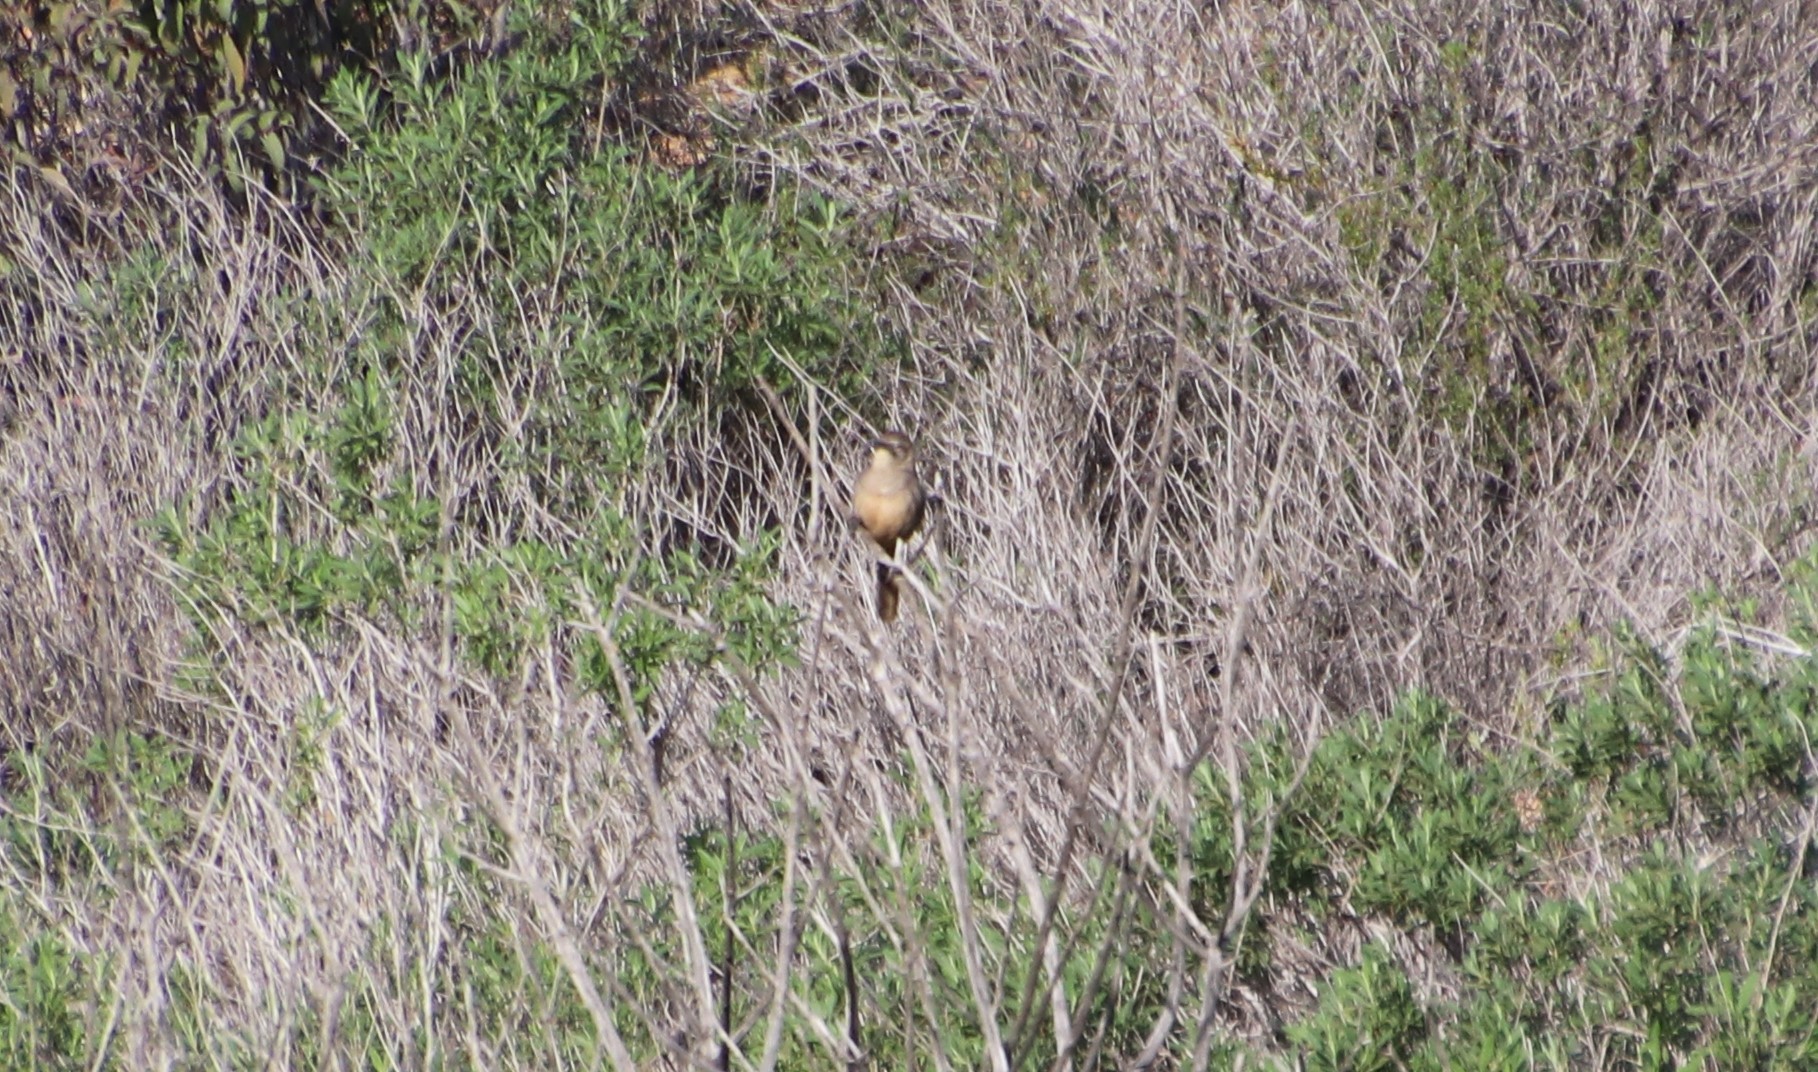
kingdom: Animalia
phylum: Chordata
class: Aves
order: Passeriformes
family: Mimidae
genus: Toxostoma
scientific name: Toxostoma redivivum
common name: California thrasher
